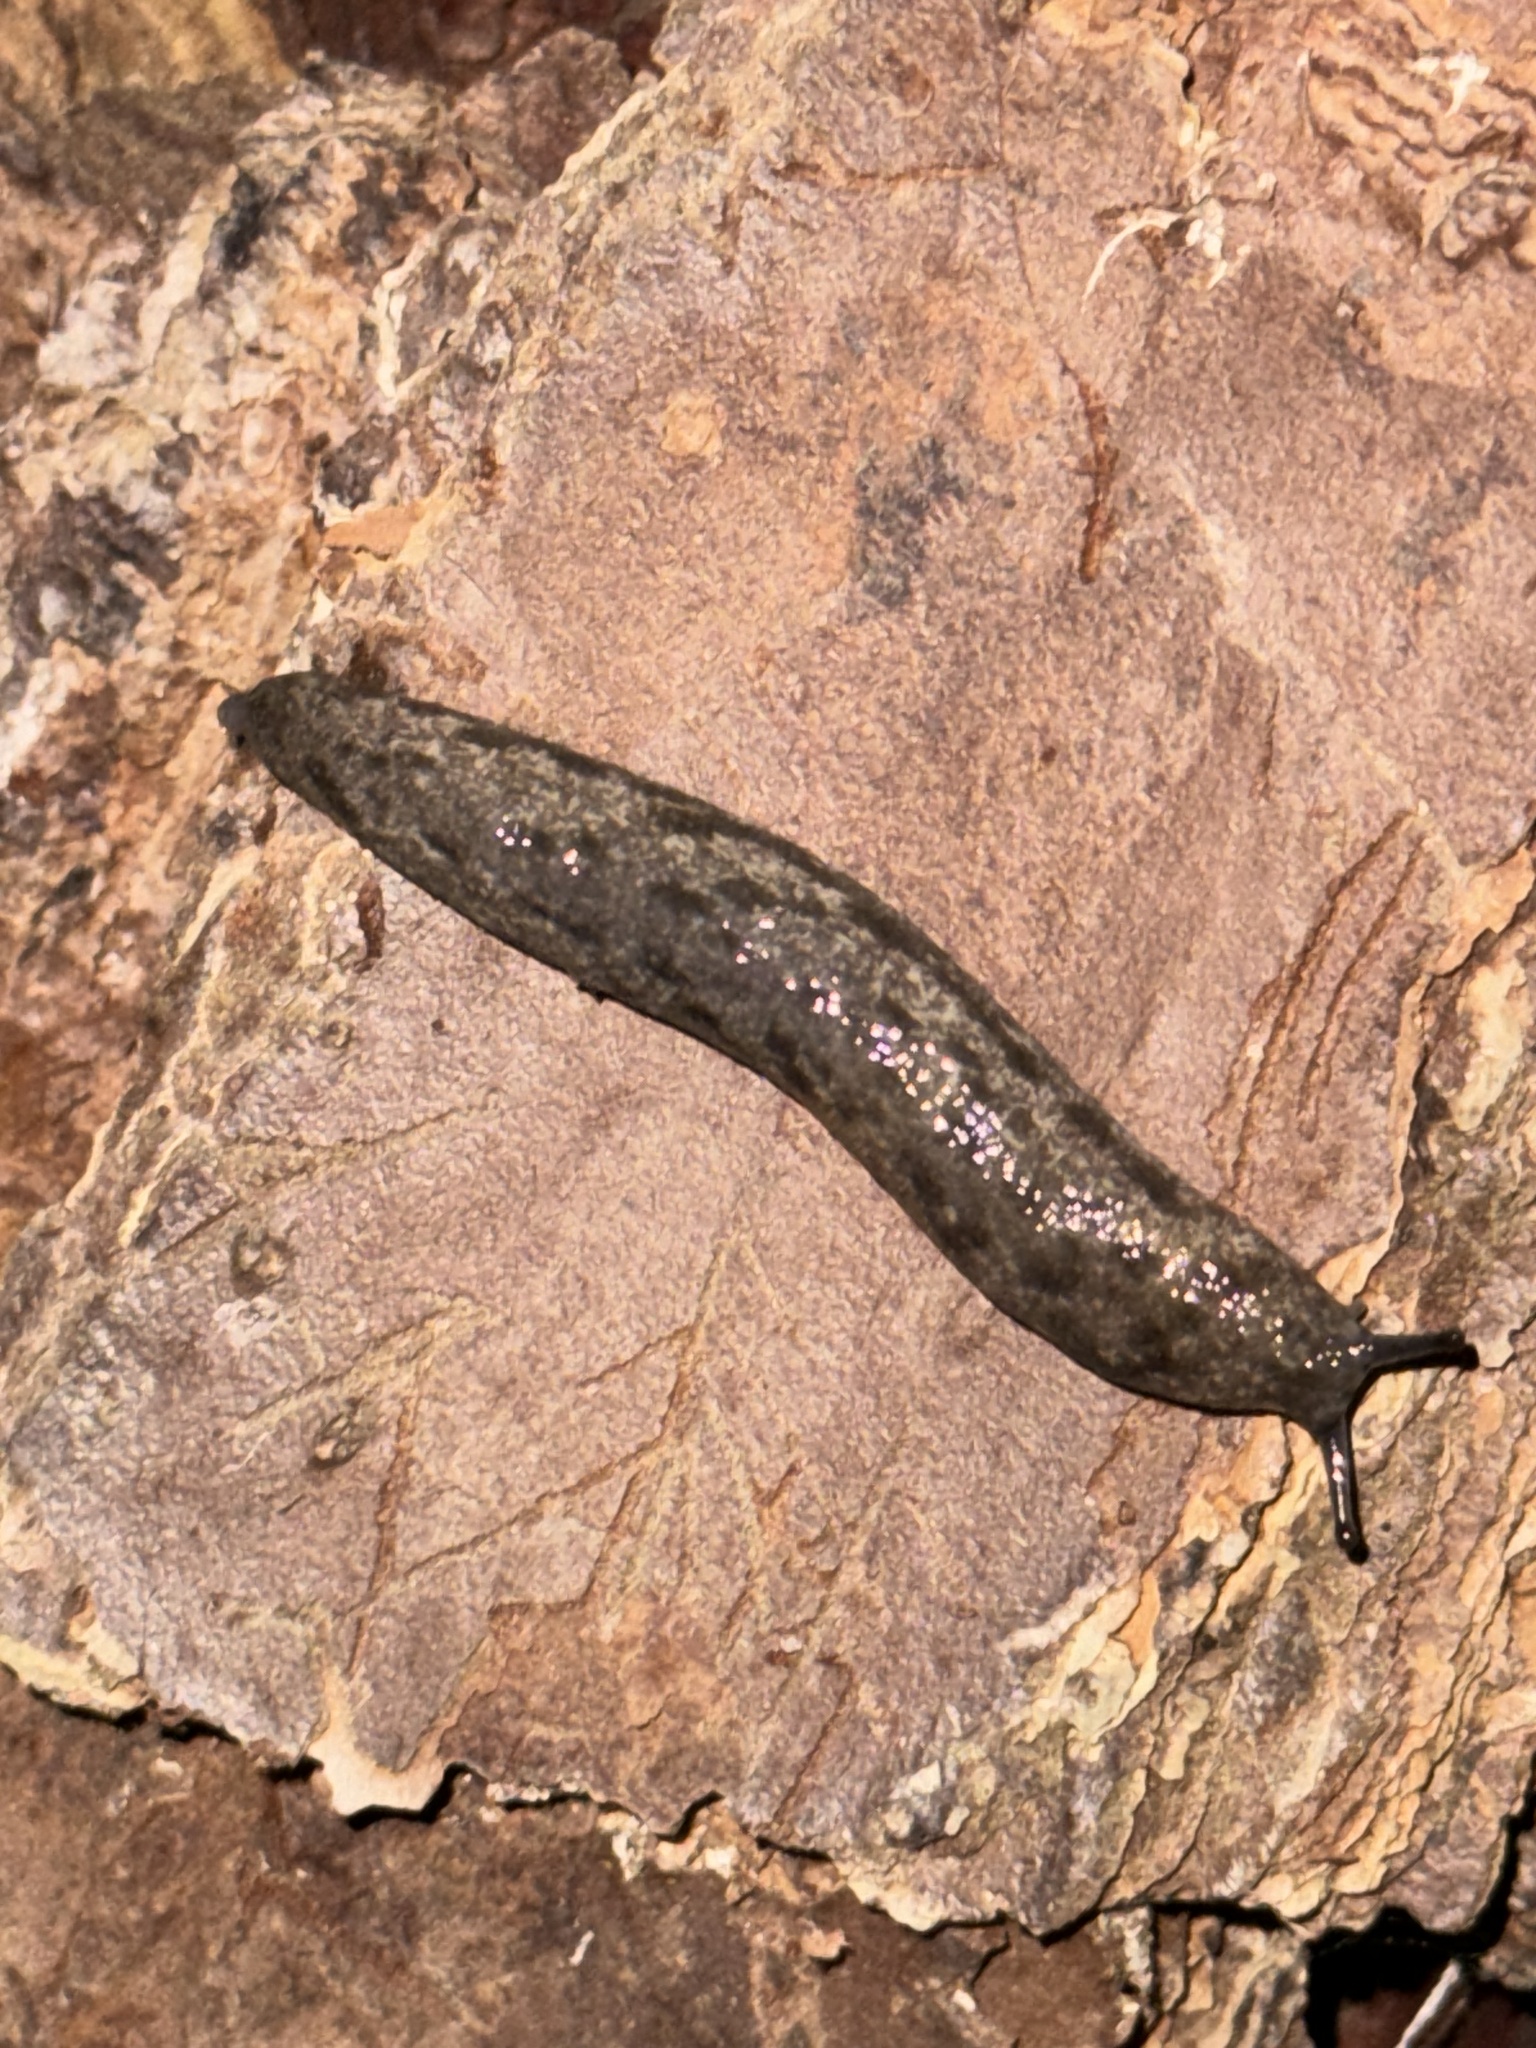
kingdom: Animalia
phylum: Mollusca
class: Gastropoda
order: Stylommatophora
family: Philomycidae
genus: Megapallifera
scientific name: Megapallifera mutabilis
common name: Changeable mantleslug
